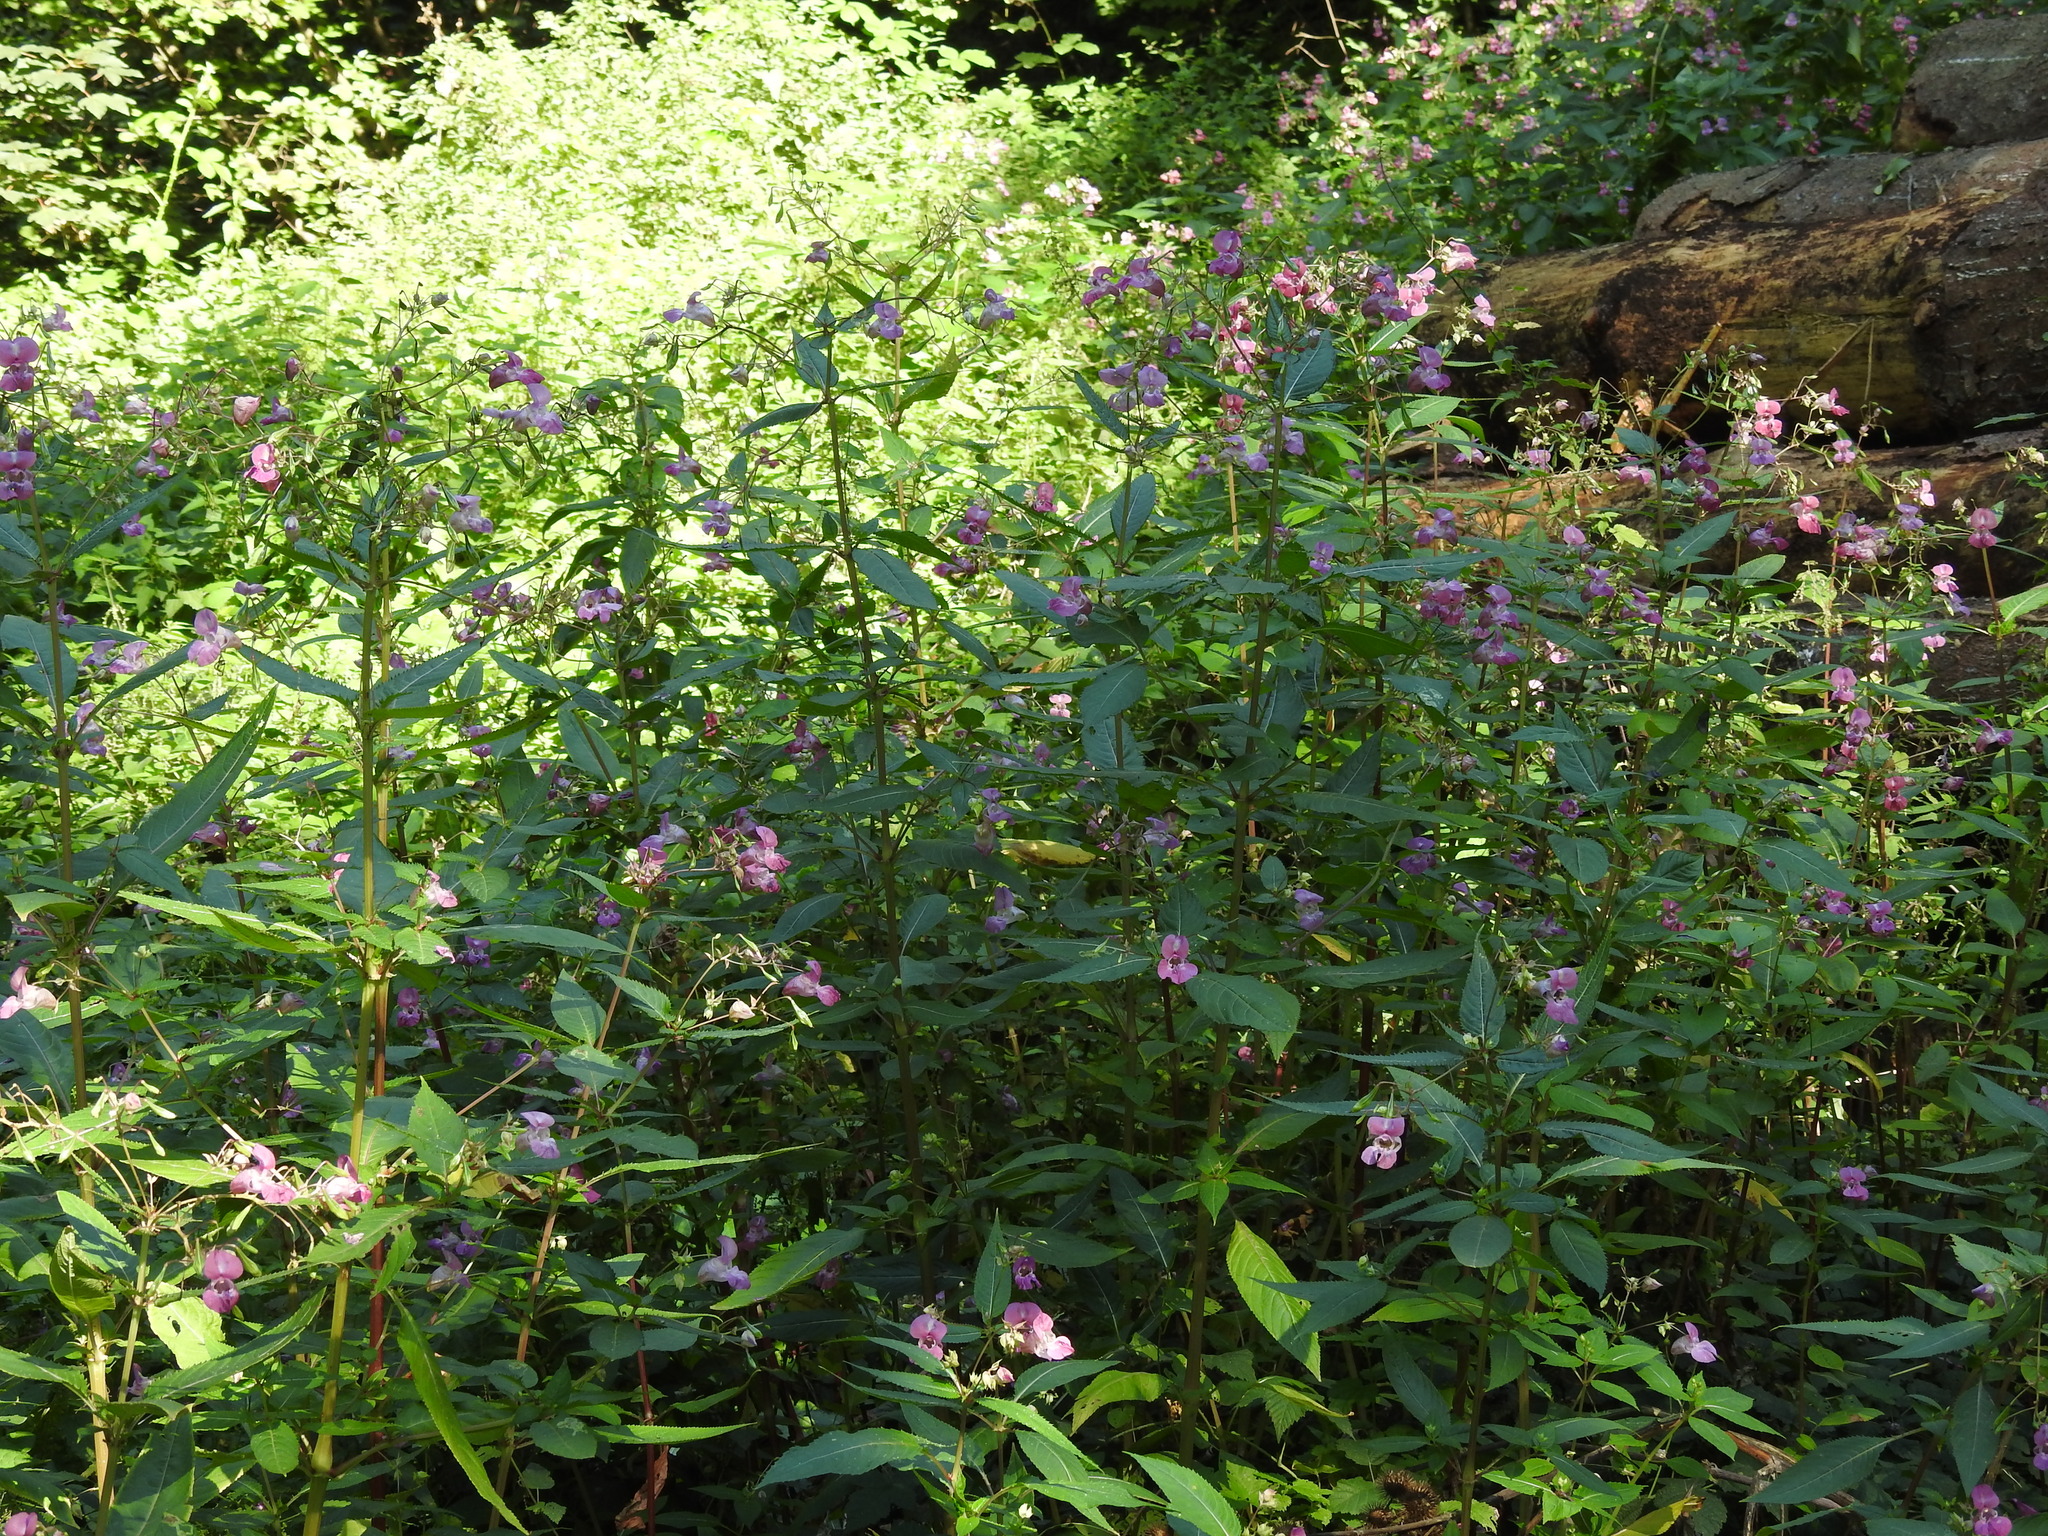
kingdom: Plantae
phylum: Tracheophyta
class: Magnoliopsida
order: Ericales
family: Balsaminaceae
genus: Impatiens
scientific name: Impatiens glandulifera
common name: Himalayan balsam
